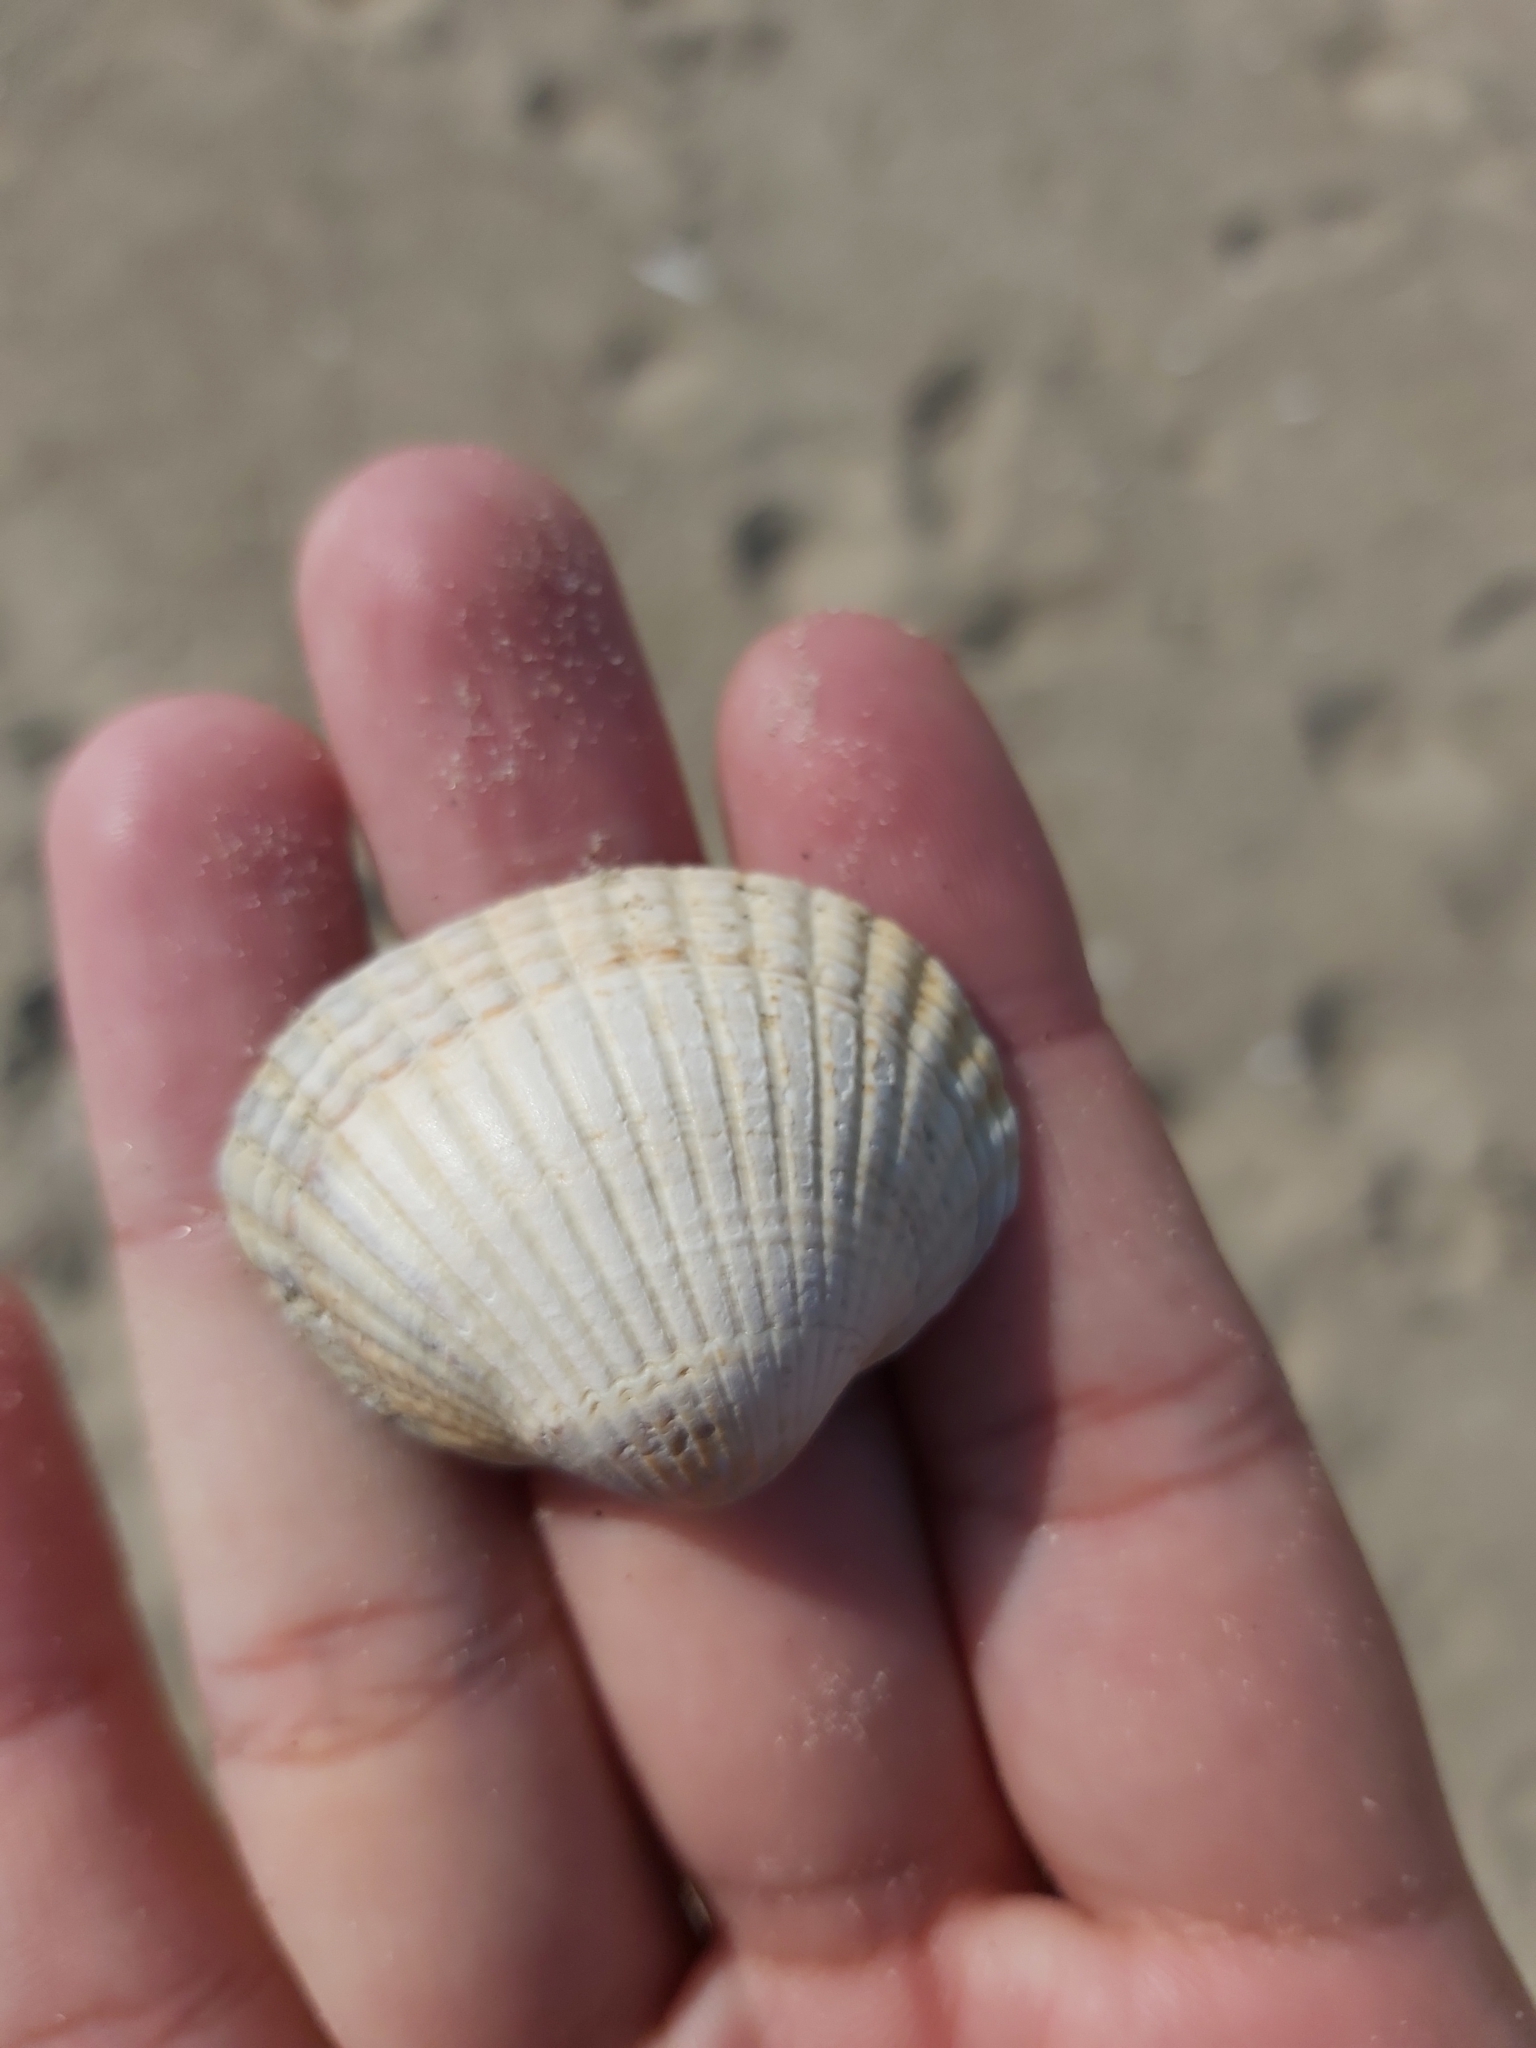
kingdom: Animalia
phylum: Mollusca
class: Bivalvia
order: Cardiida
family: Cardiidae
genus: Cerastoderma
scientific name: Cerastoderma edule
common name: Common cockle
